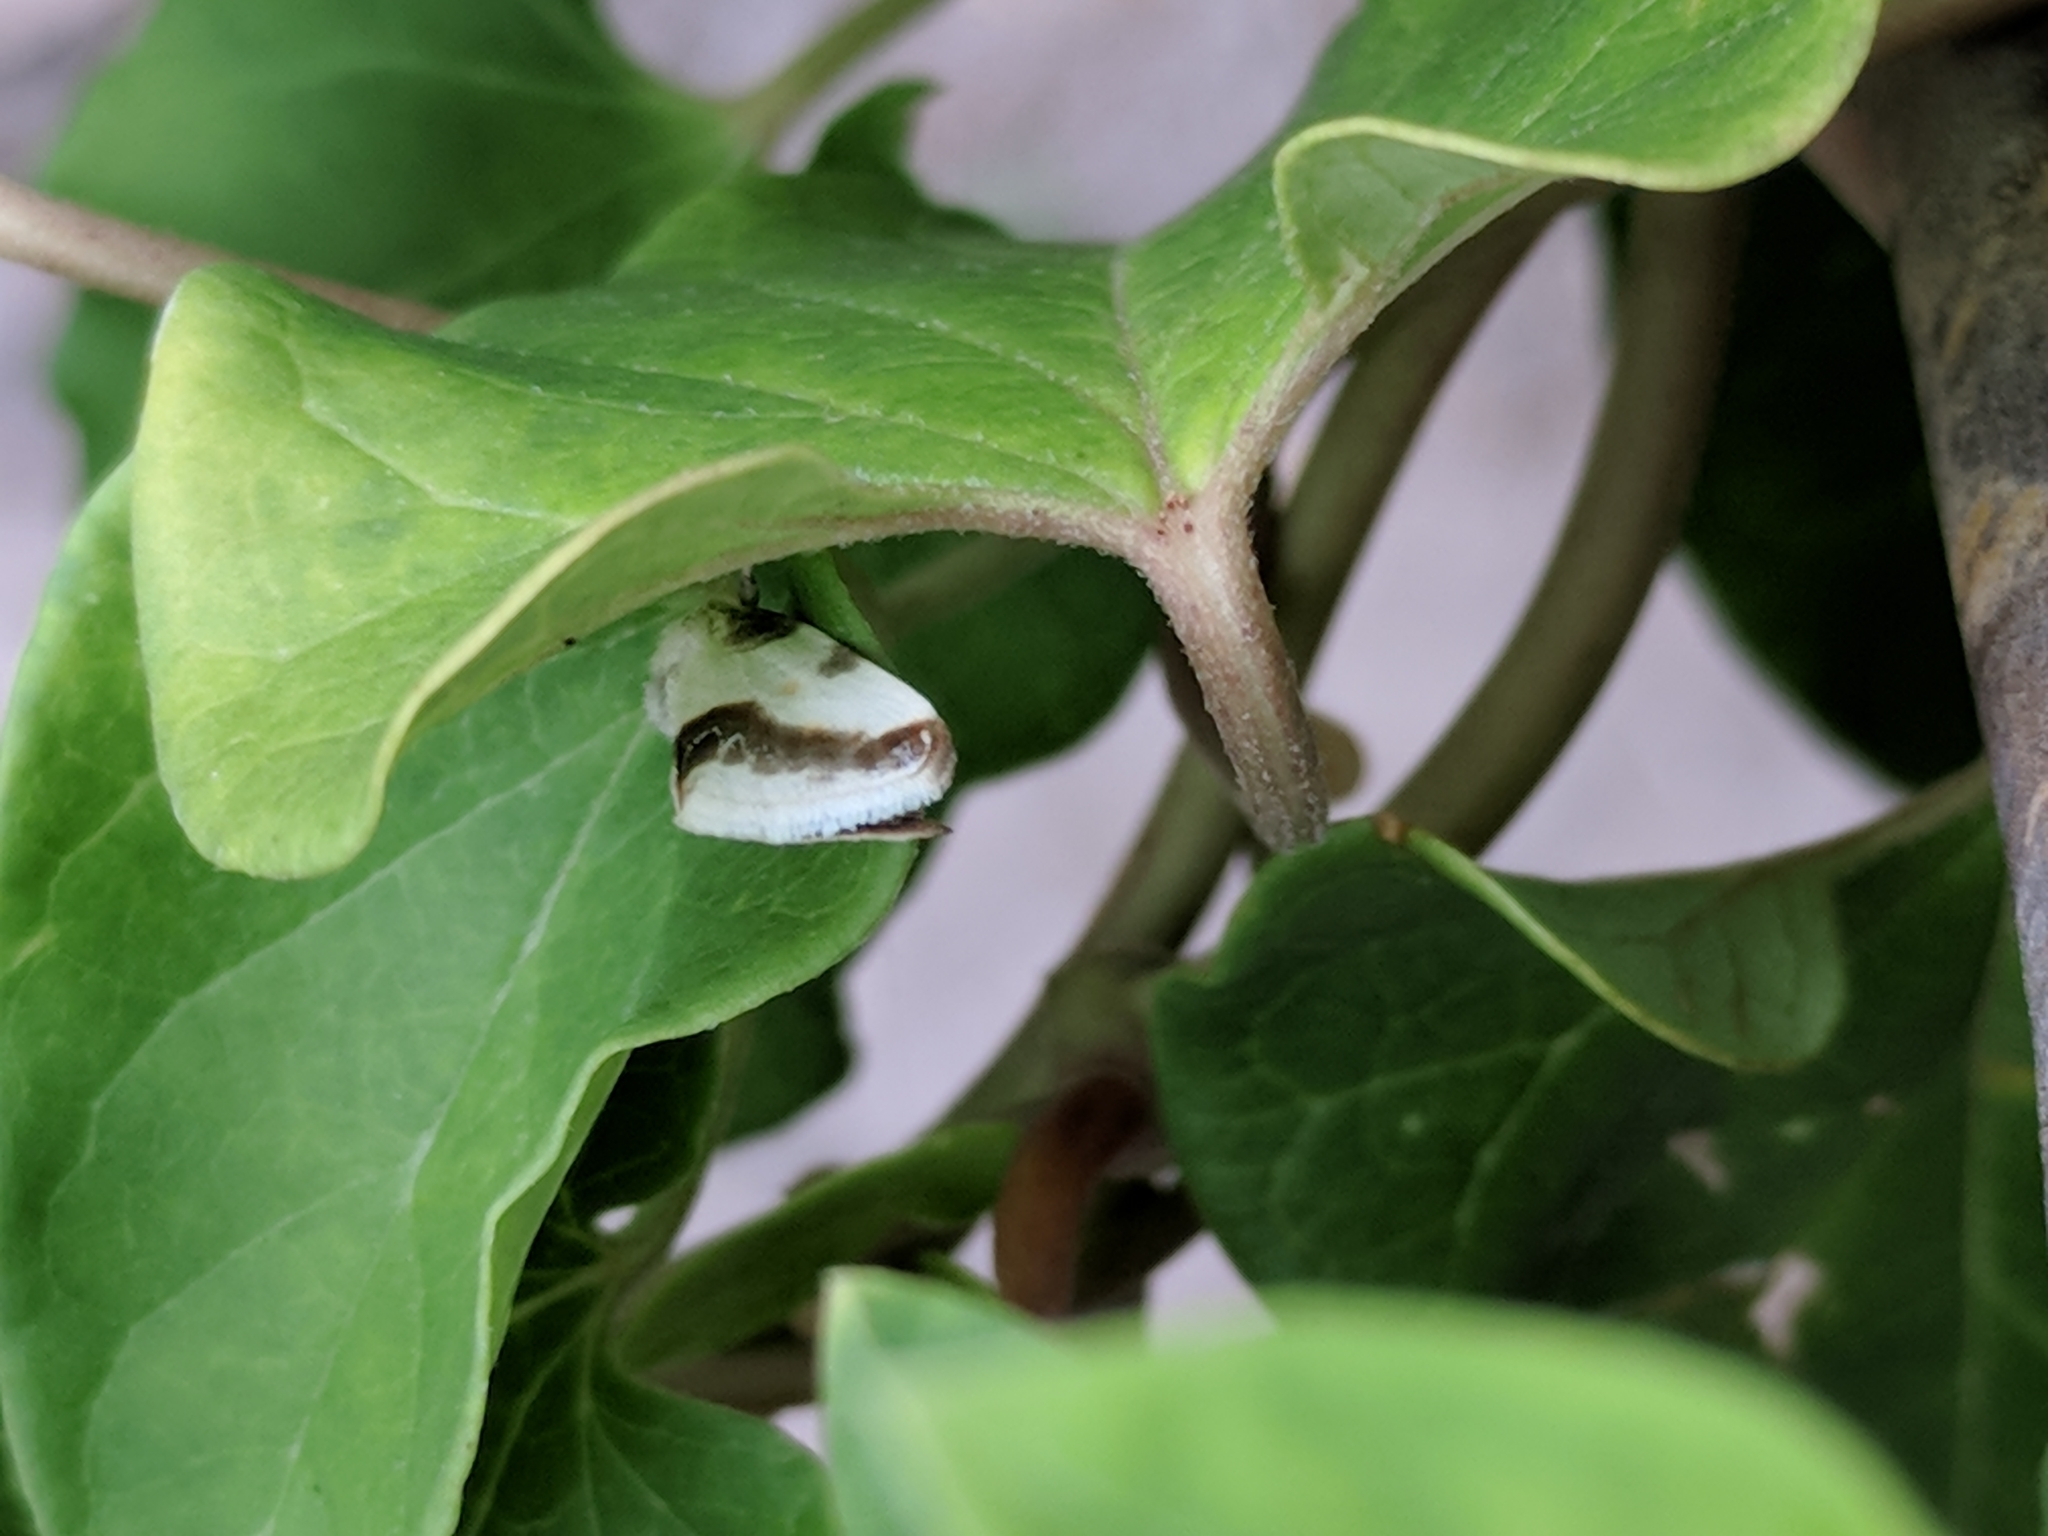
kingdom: Animalia
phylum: Arthropoda
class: Insecta
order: Lepidoptera
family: Noctuidae
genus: Acontia
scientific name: Acontia cretata
